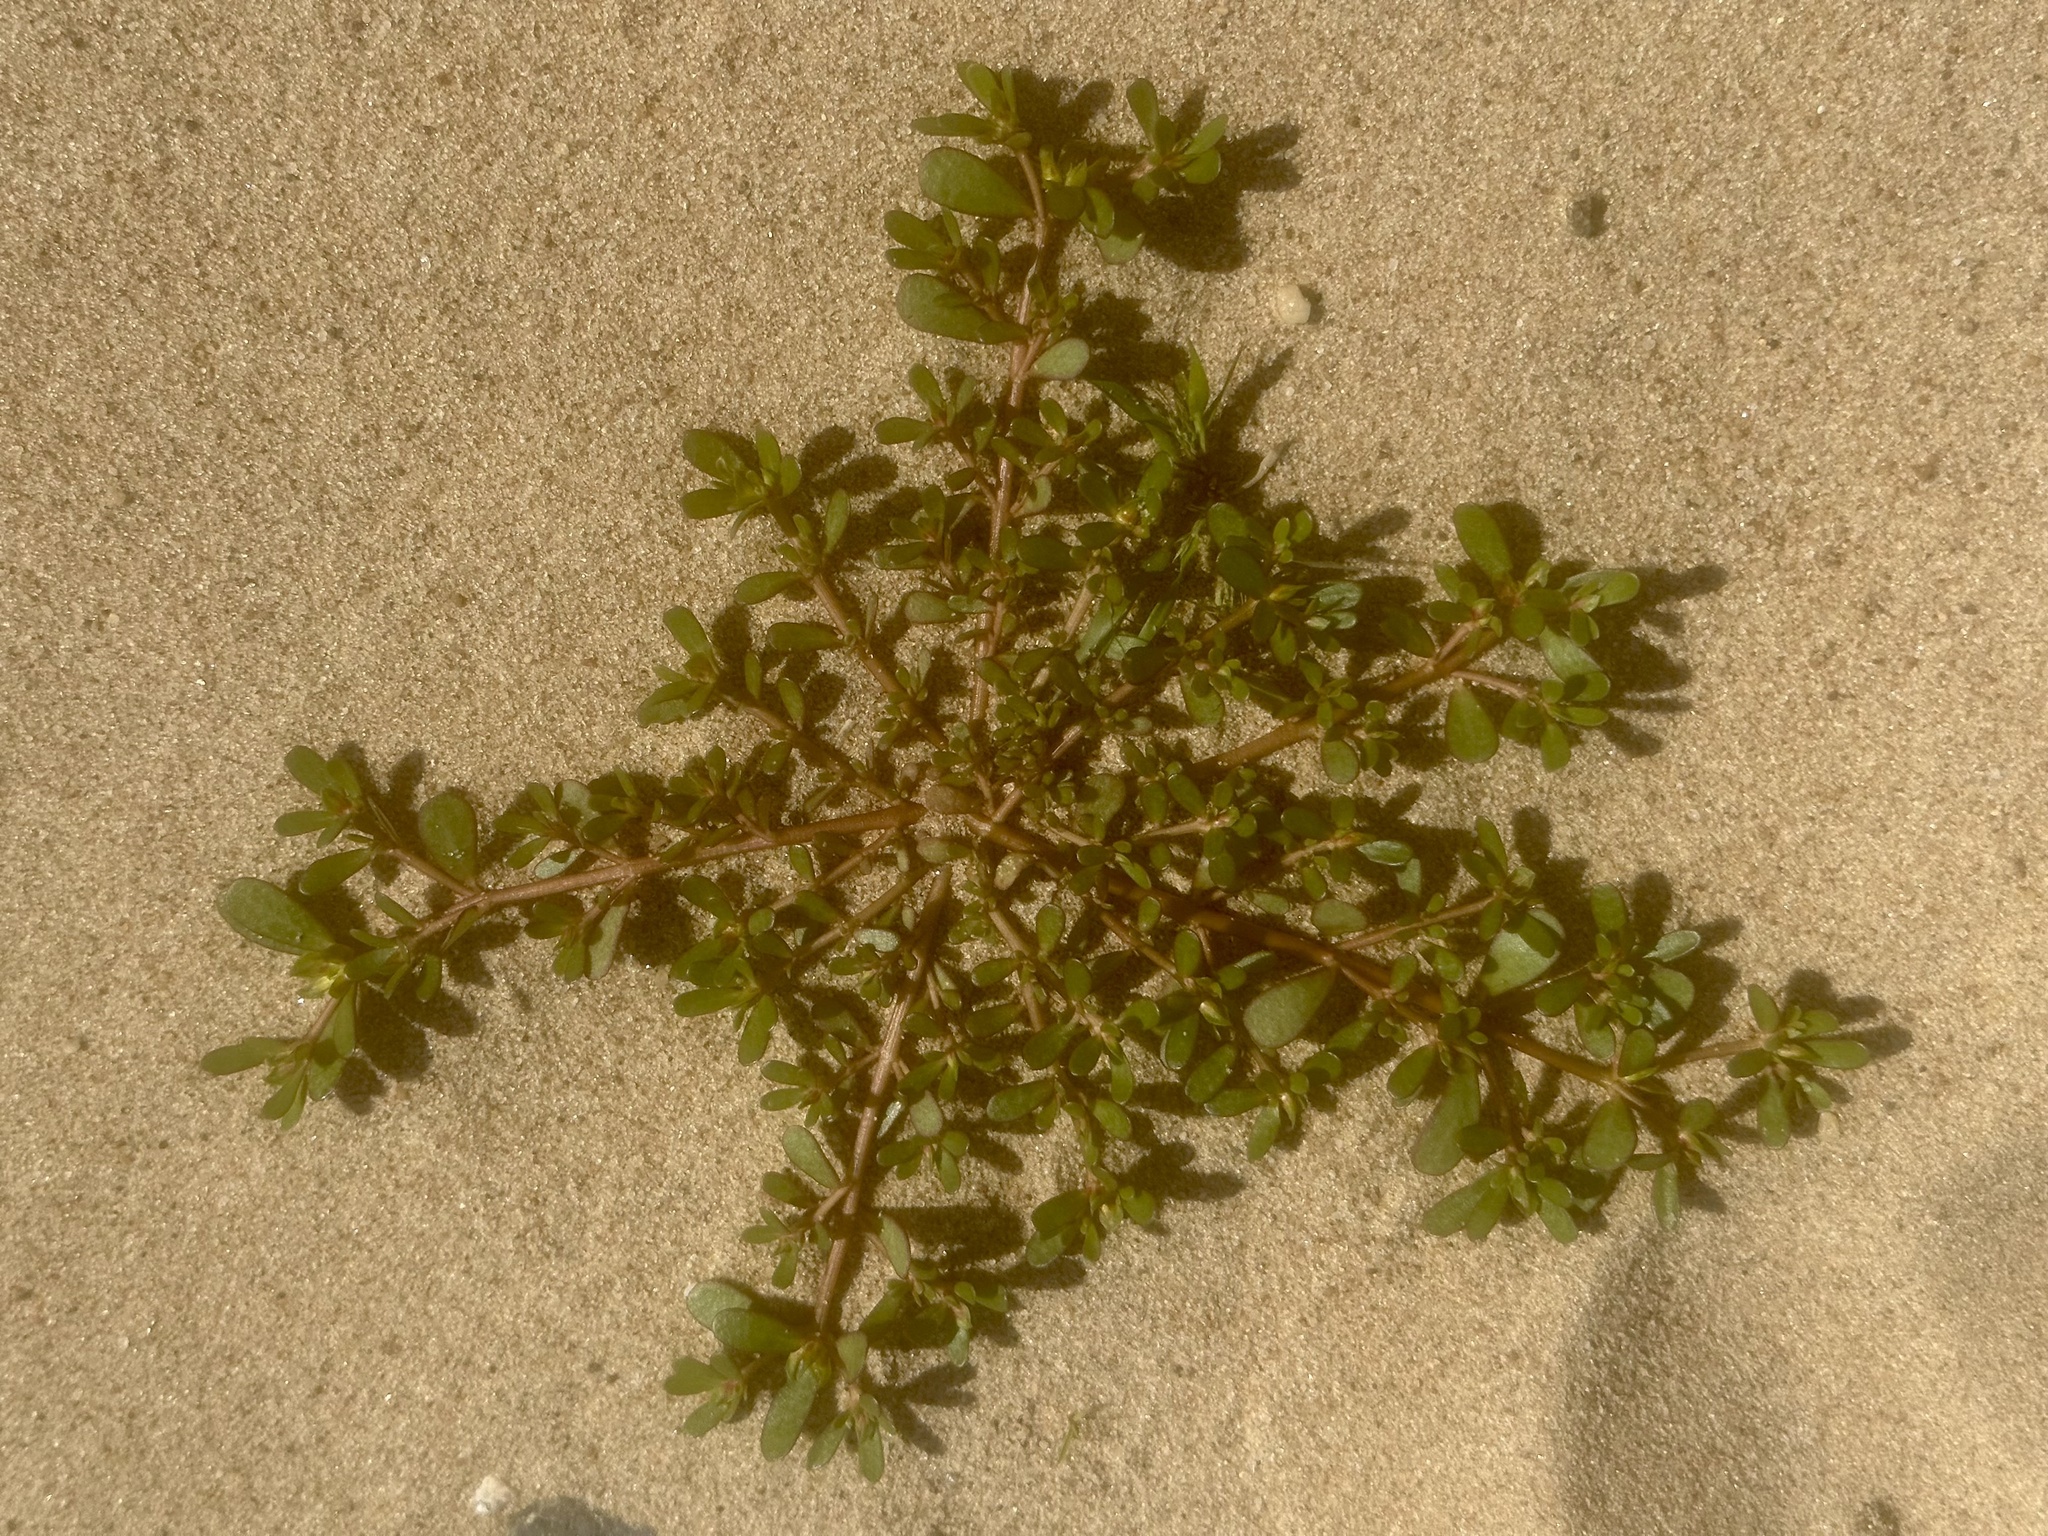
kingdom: Plantae
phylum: Tracheophyta
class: Magnoliopsida
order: Caryophyllales
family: Portulacaceae
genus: Portulaca
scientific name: Portulaca oleracea
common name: Common purslane
